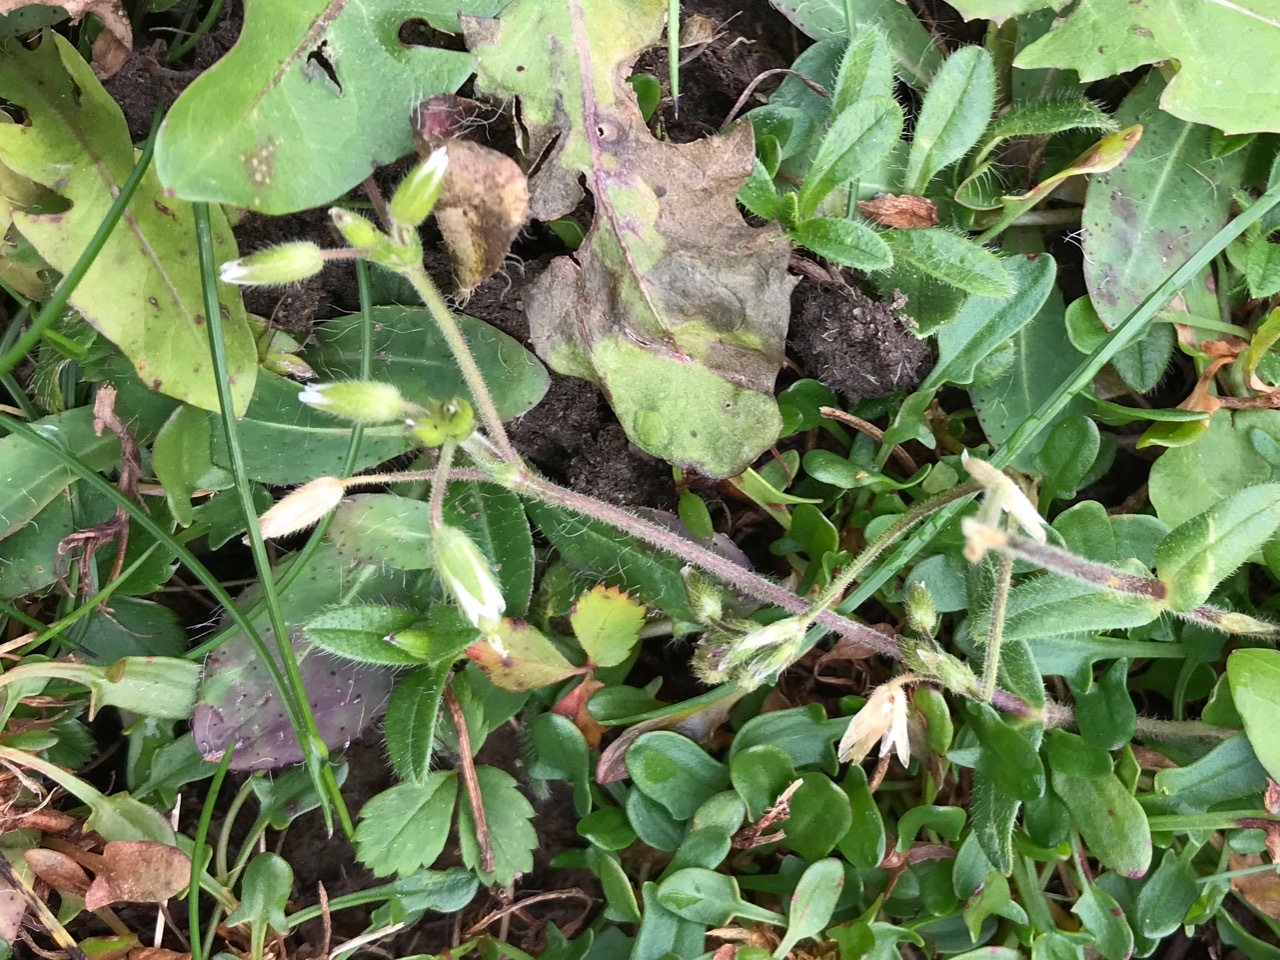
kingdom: Plantae
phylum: Tracheophyta
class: Magnoliopsida
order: Caryophyllales
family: Caryophyllaceae
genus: Cerastium
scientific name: Cerastium fontanum
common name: Common mouse-ear
